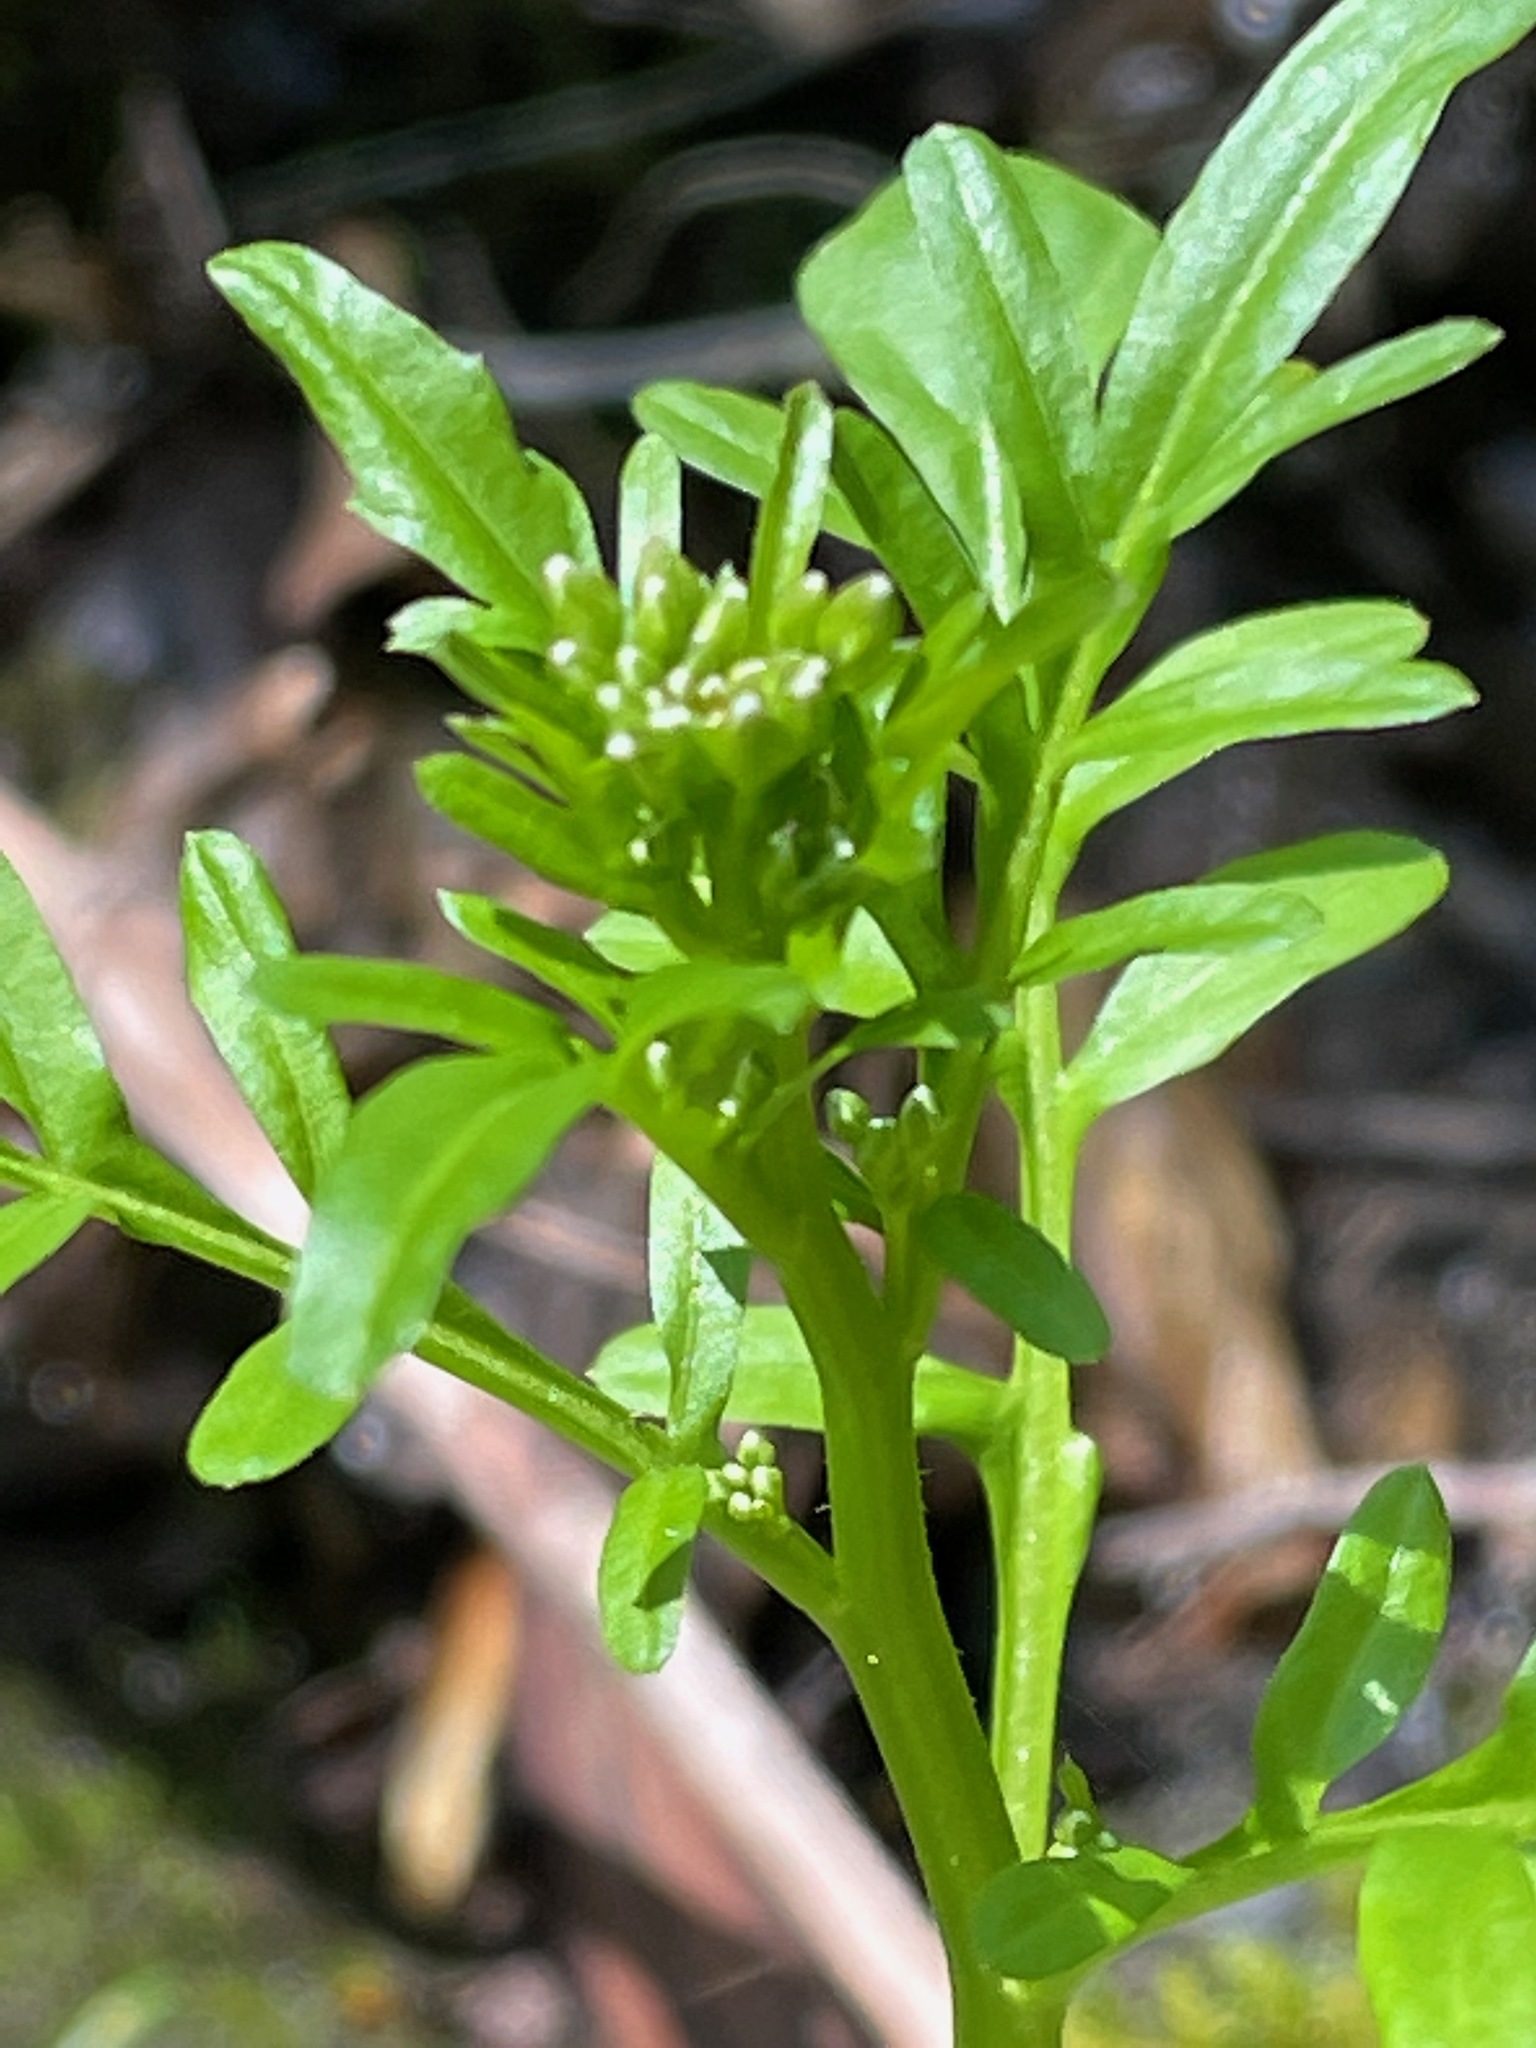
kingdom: Plantae
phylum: Tracheophyta
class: Magnoliopsida
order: Brassicales
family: Brassicaceae
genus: Cardamine
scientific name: Cardamine pensylvanica
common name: Pennsylvania bittercress
